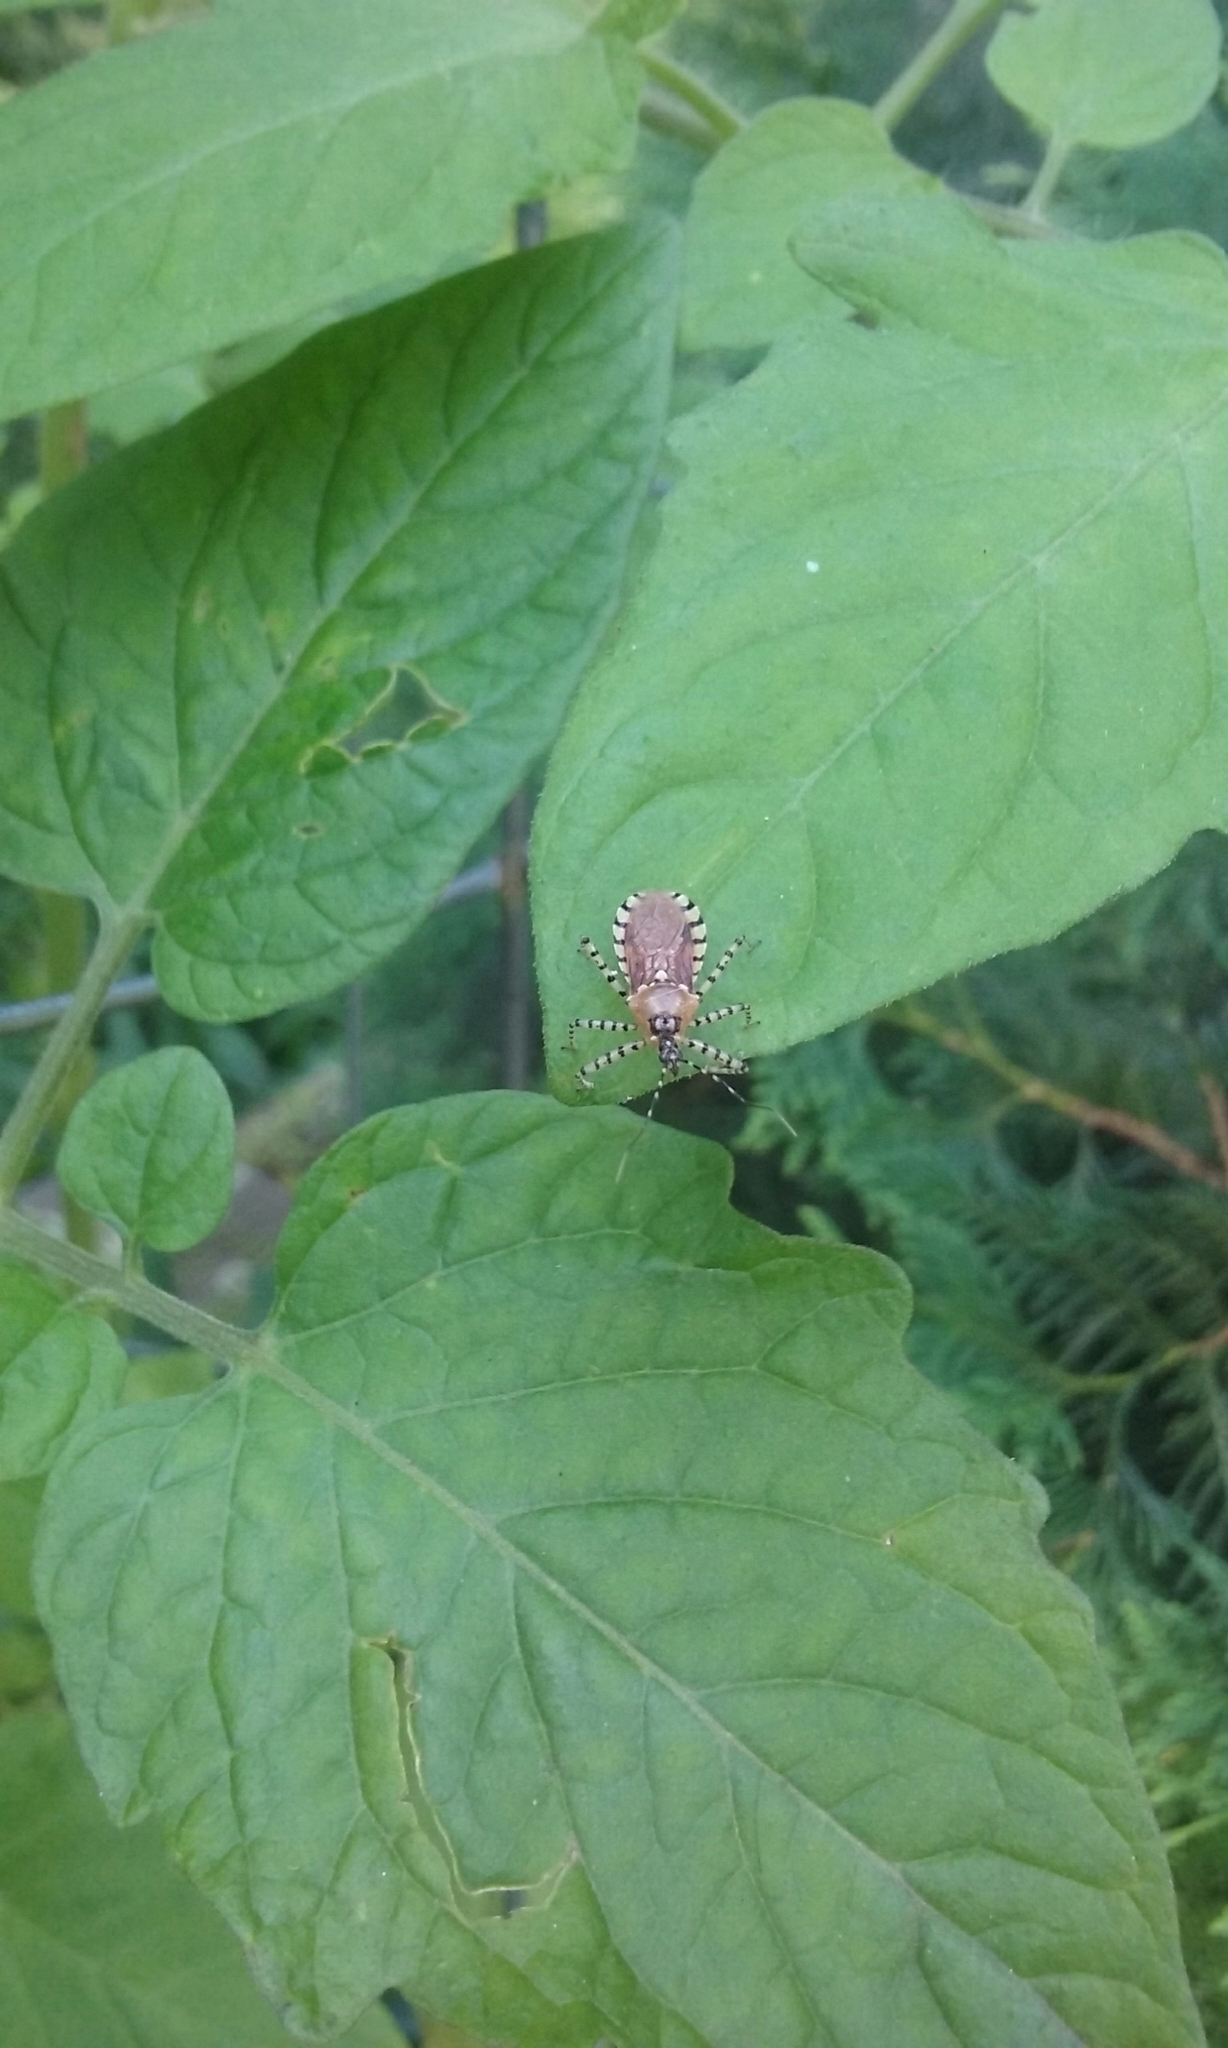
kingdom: Animalia
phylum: Arthropoda
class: Insecta
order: Hemiptera
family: Reduviidae
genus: Pselliopus
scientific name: Pselliopus cinctus
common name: Ringed assassin bug
